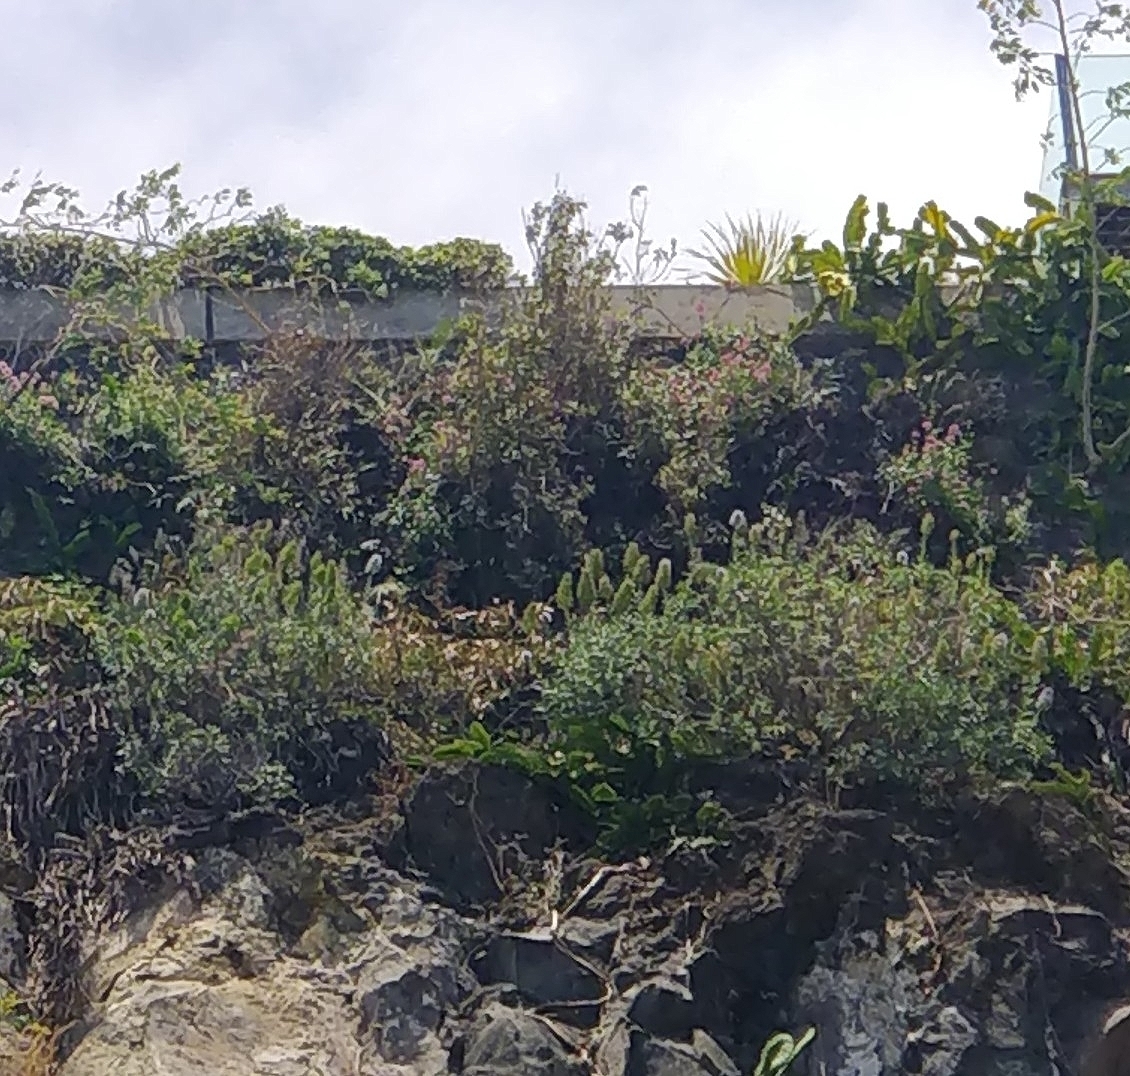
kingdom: Plantae
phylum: Tracheophyta
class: Magnoliopsida
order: Boraginales
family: Boraginaceae
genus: Echium
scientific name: Echium nervosum
